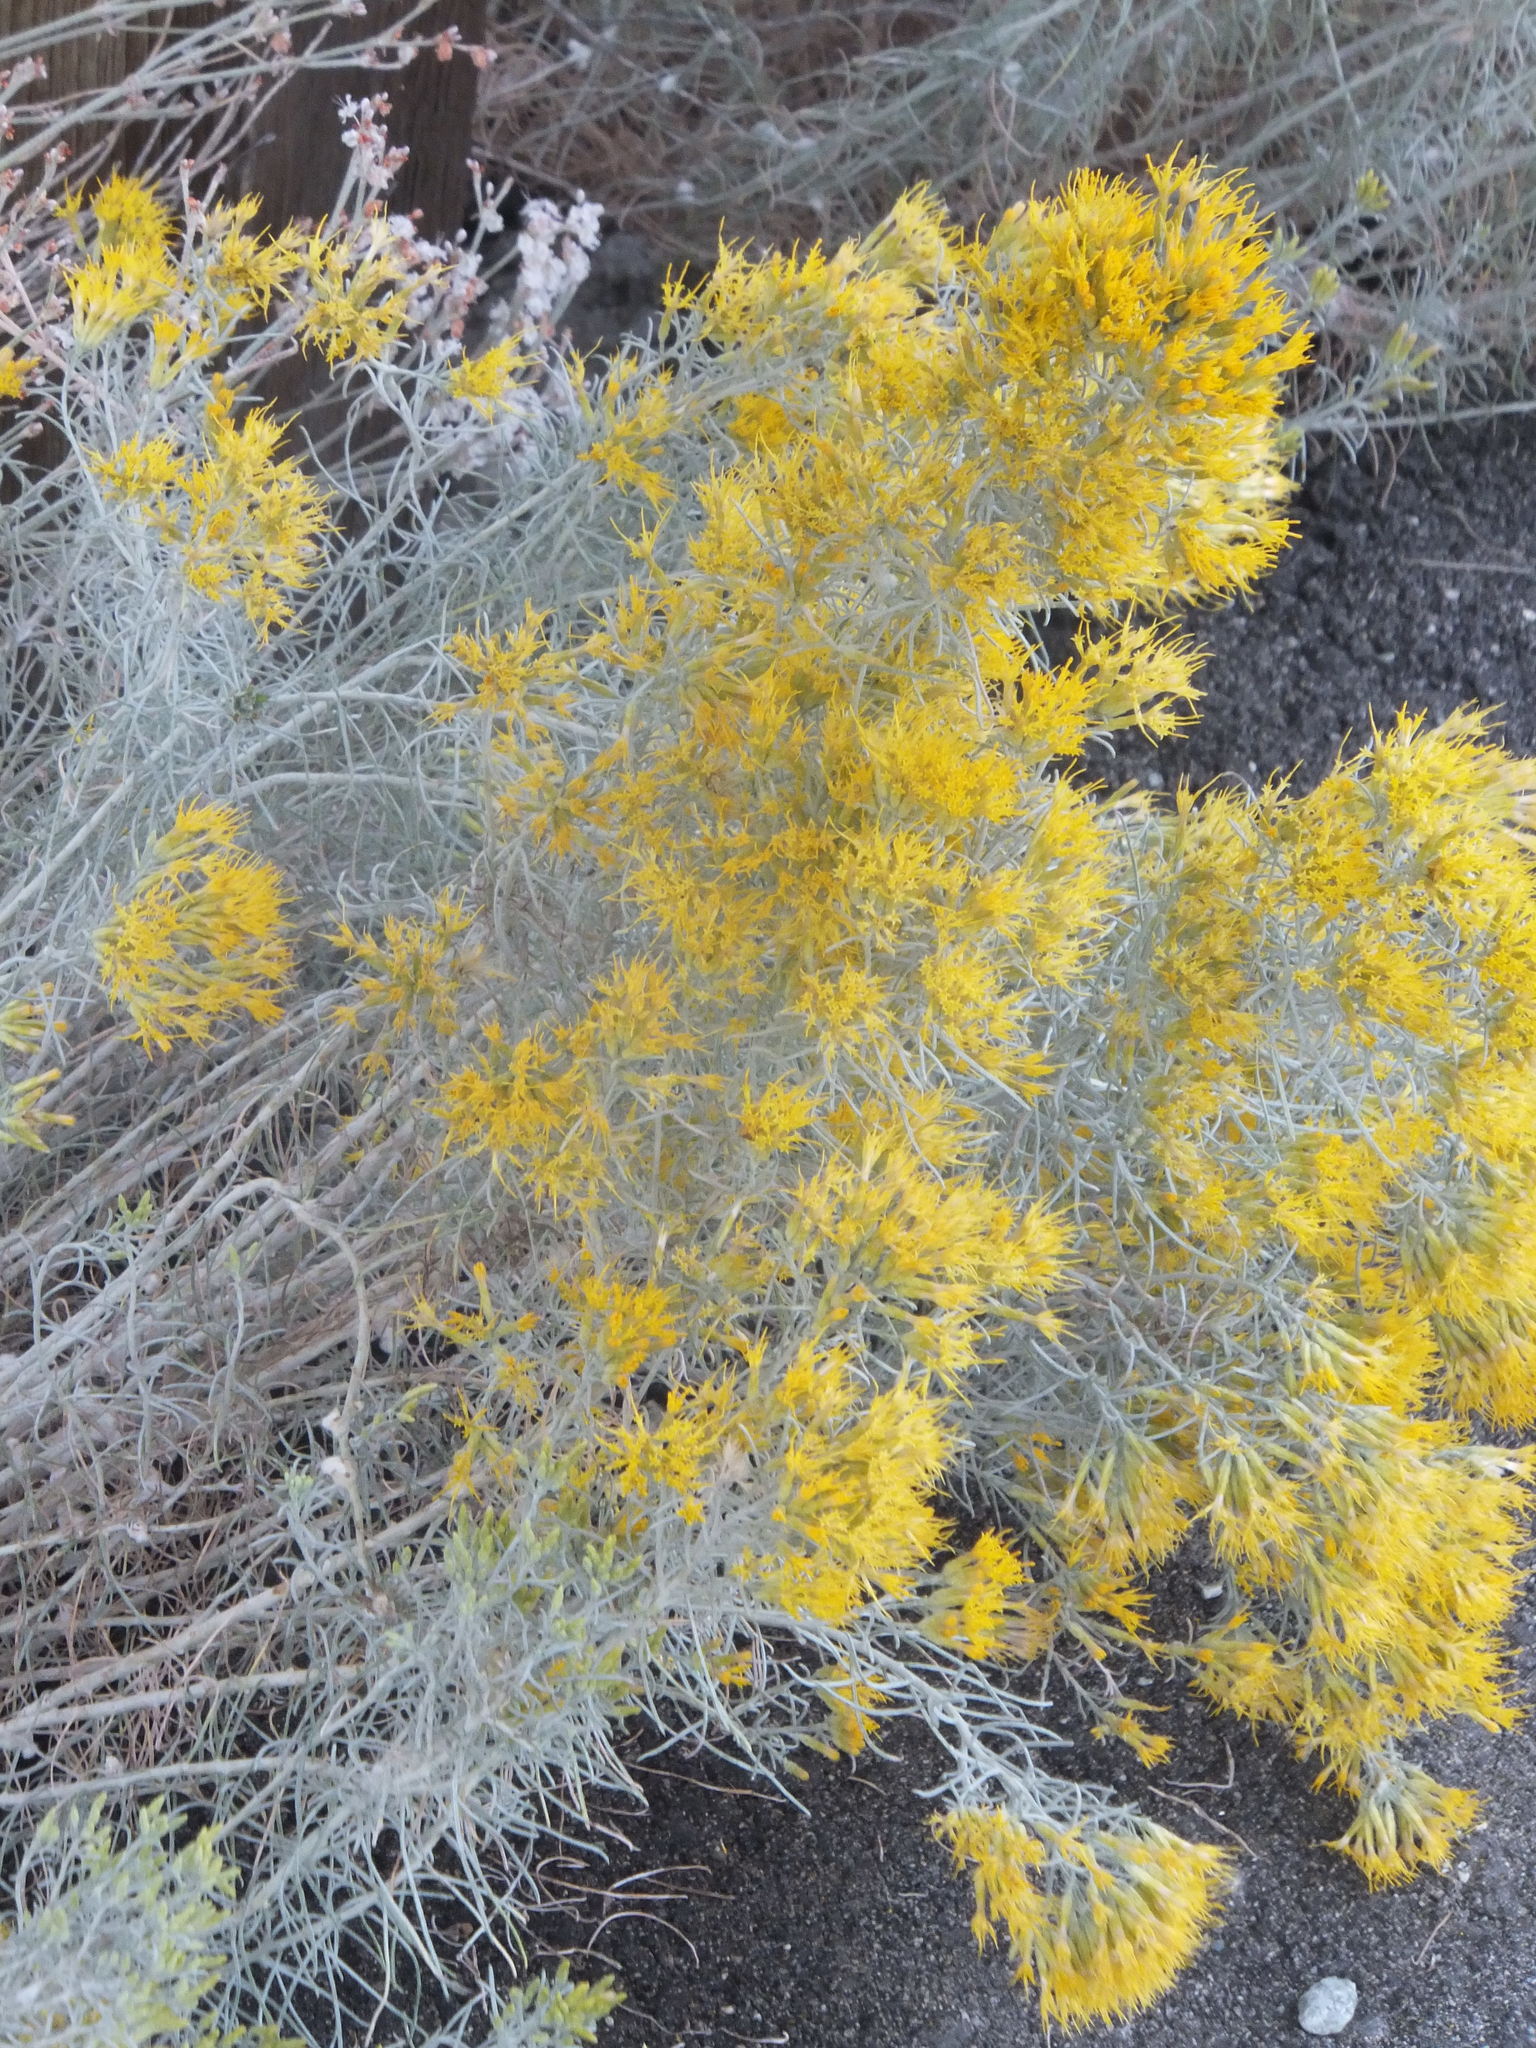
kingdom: Plantae
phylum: Tracheophyta
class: Magnoliopsida
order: Asterales
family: Asteraceae
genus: Ericameria
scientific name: Ericameria nauseosa
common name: Rubber rabbitbrush
